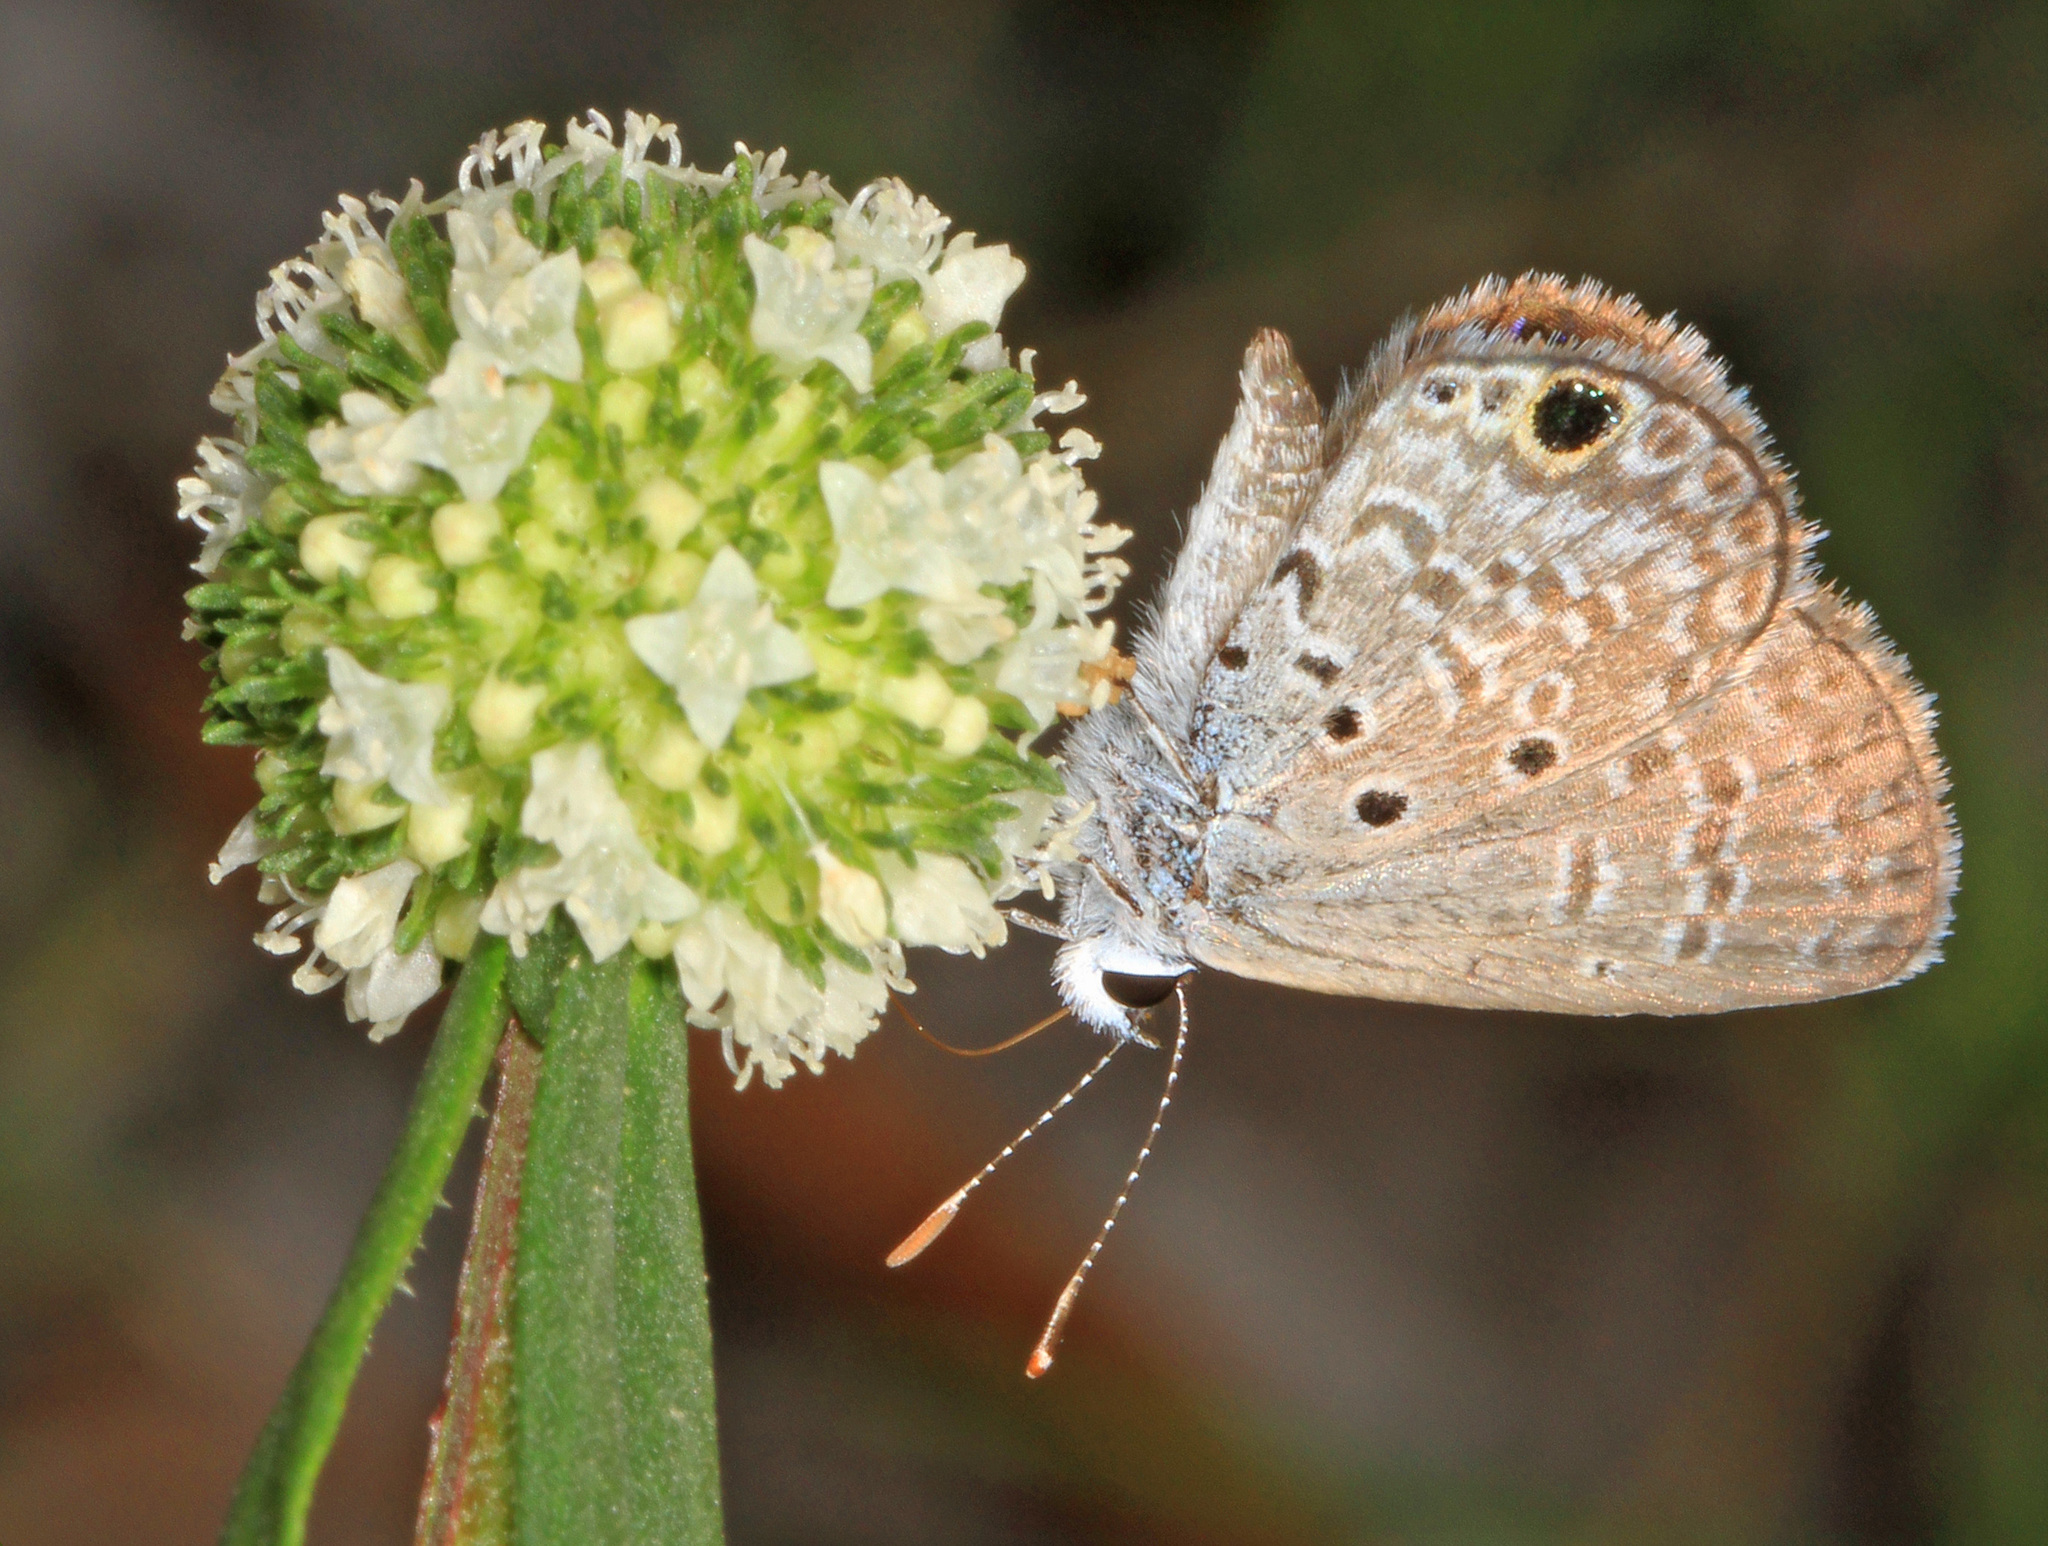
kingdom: Animalia
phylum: Arthropoda
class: Insecta
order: Lepidoptera
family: Lycaenidae
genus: Hemiargus
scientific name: Hemiargus ceraunus
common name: Ceraunus blue
